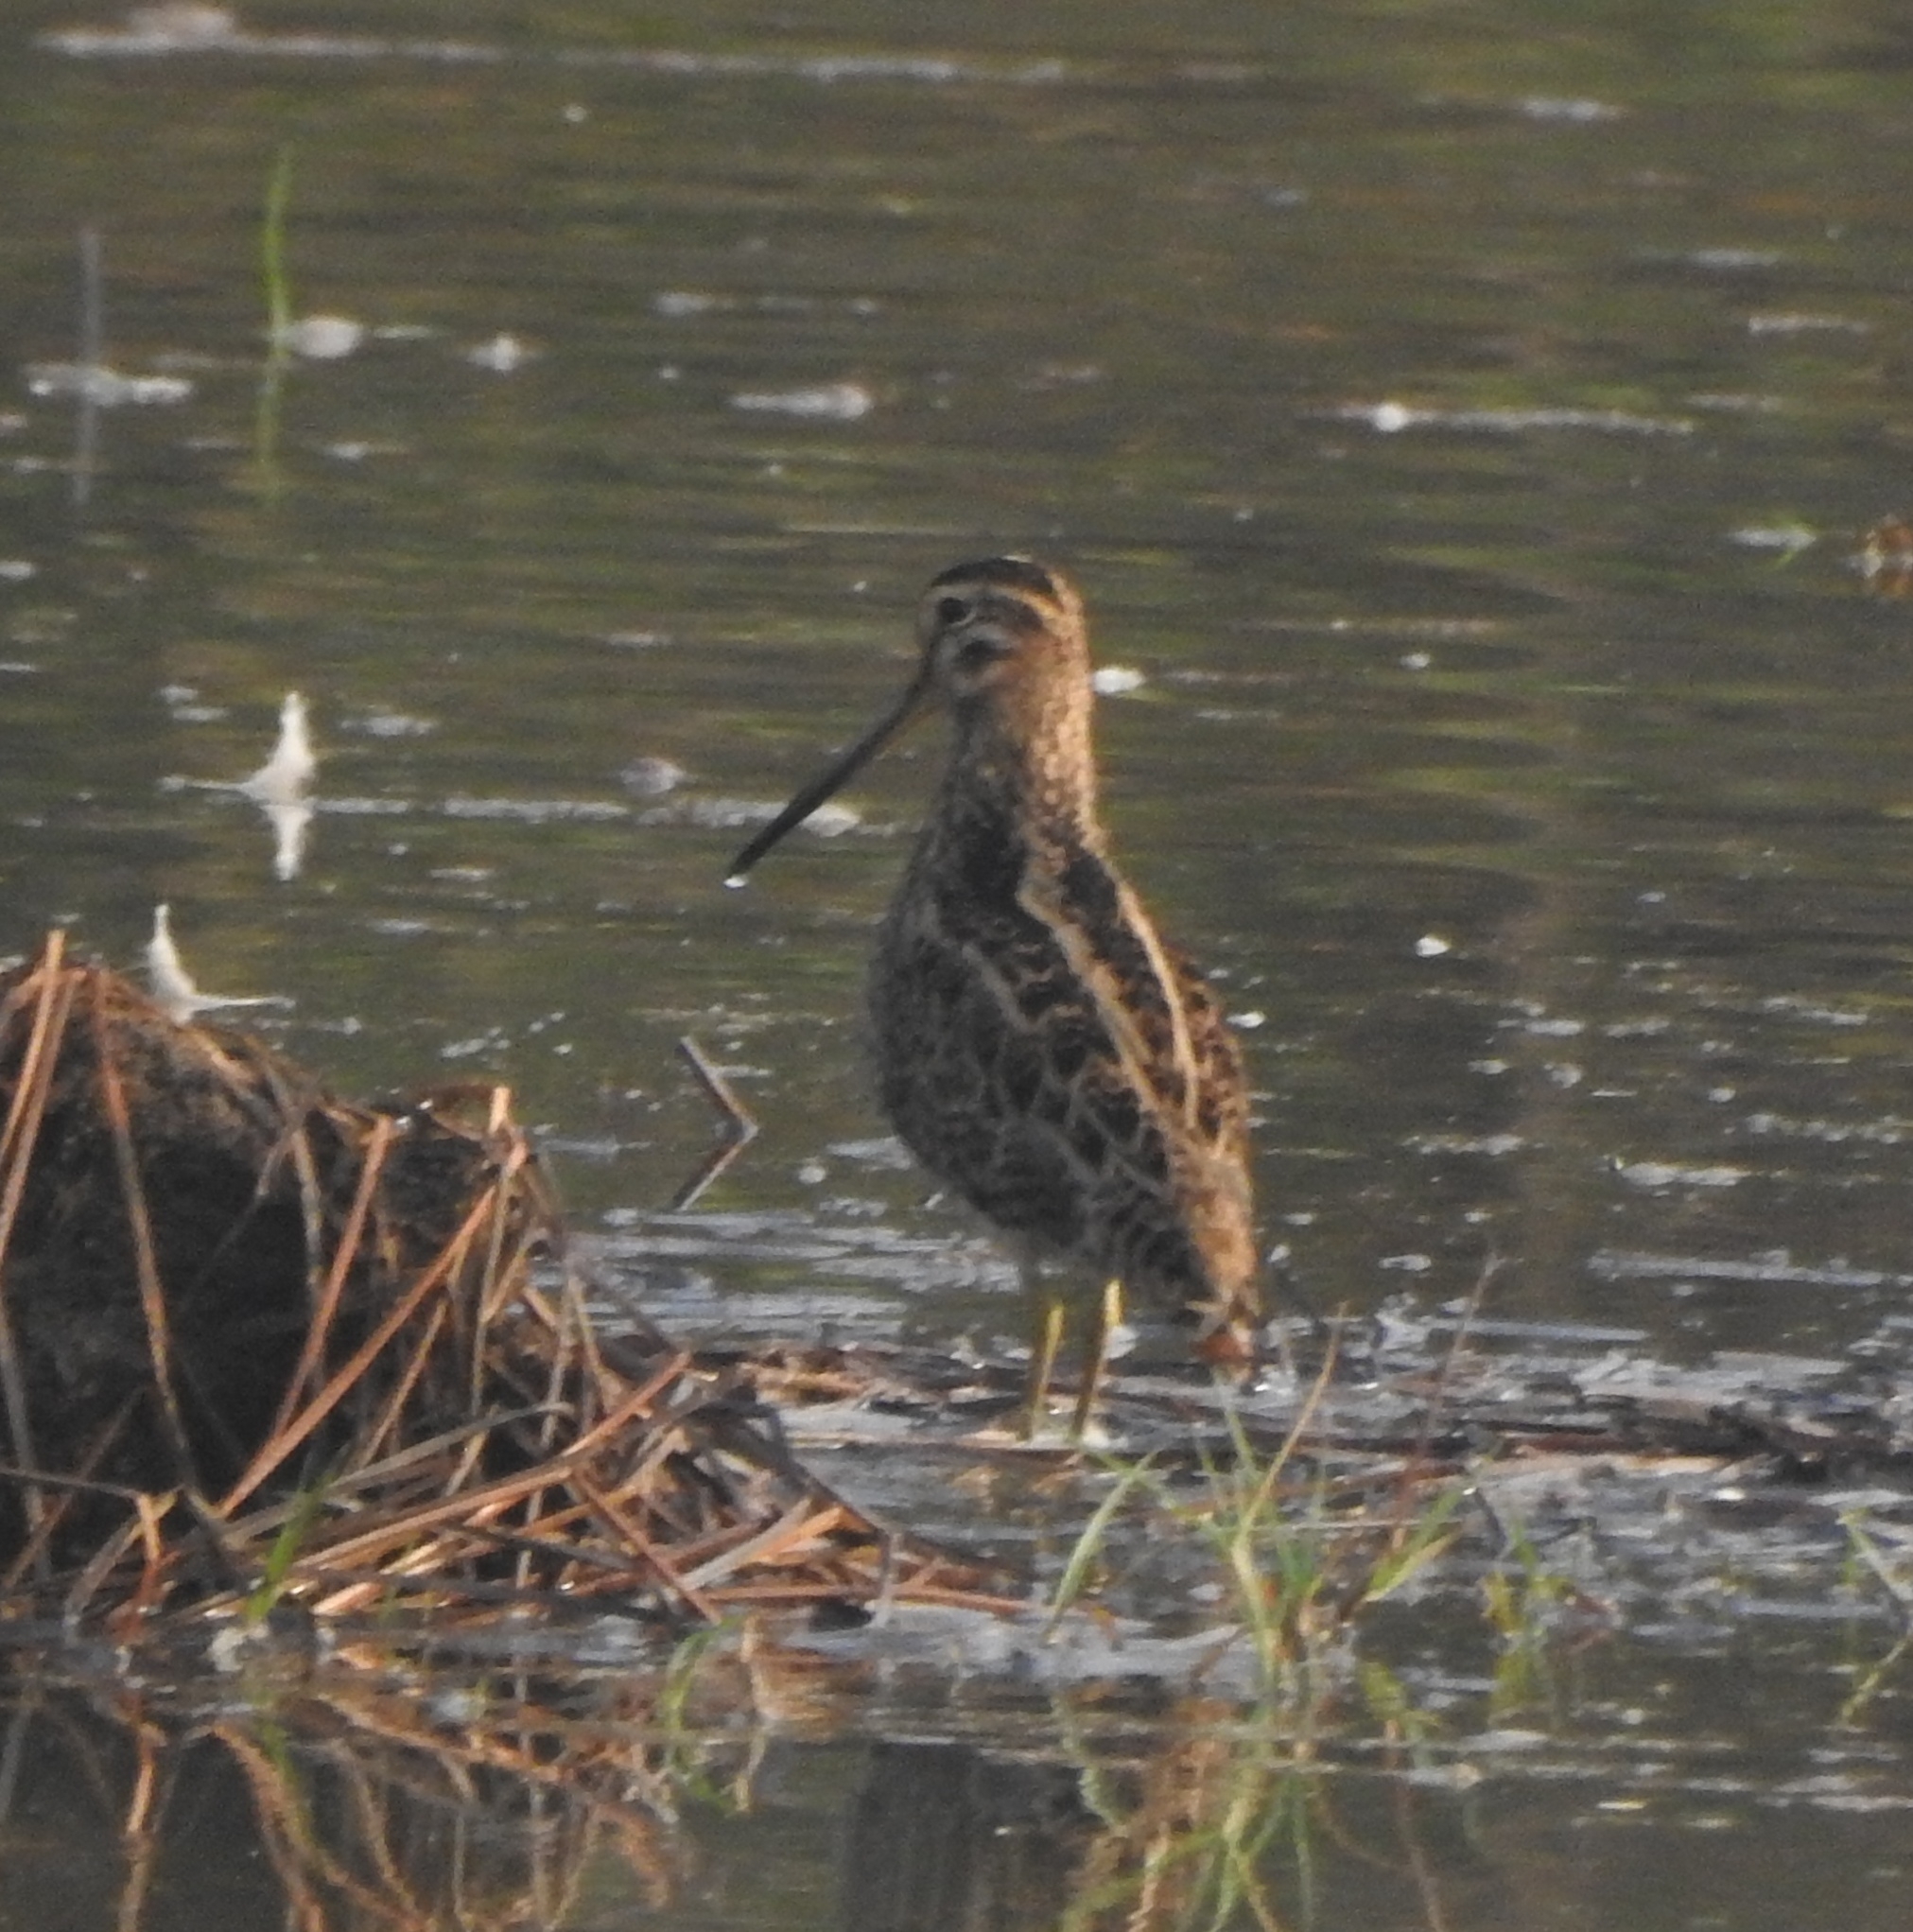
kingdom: Animalia
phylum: Chordata
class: Aves
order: Charadriiformes
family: Scolopacidae
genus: Gallinago
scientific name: Gallinago stenura
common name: Pin-tailed snipe
